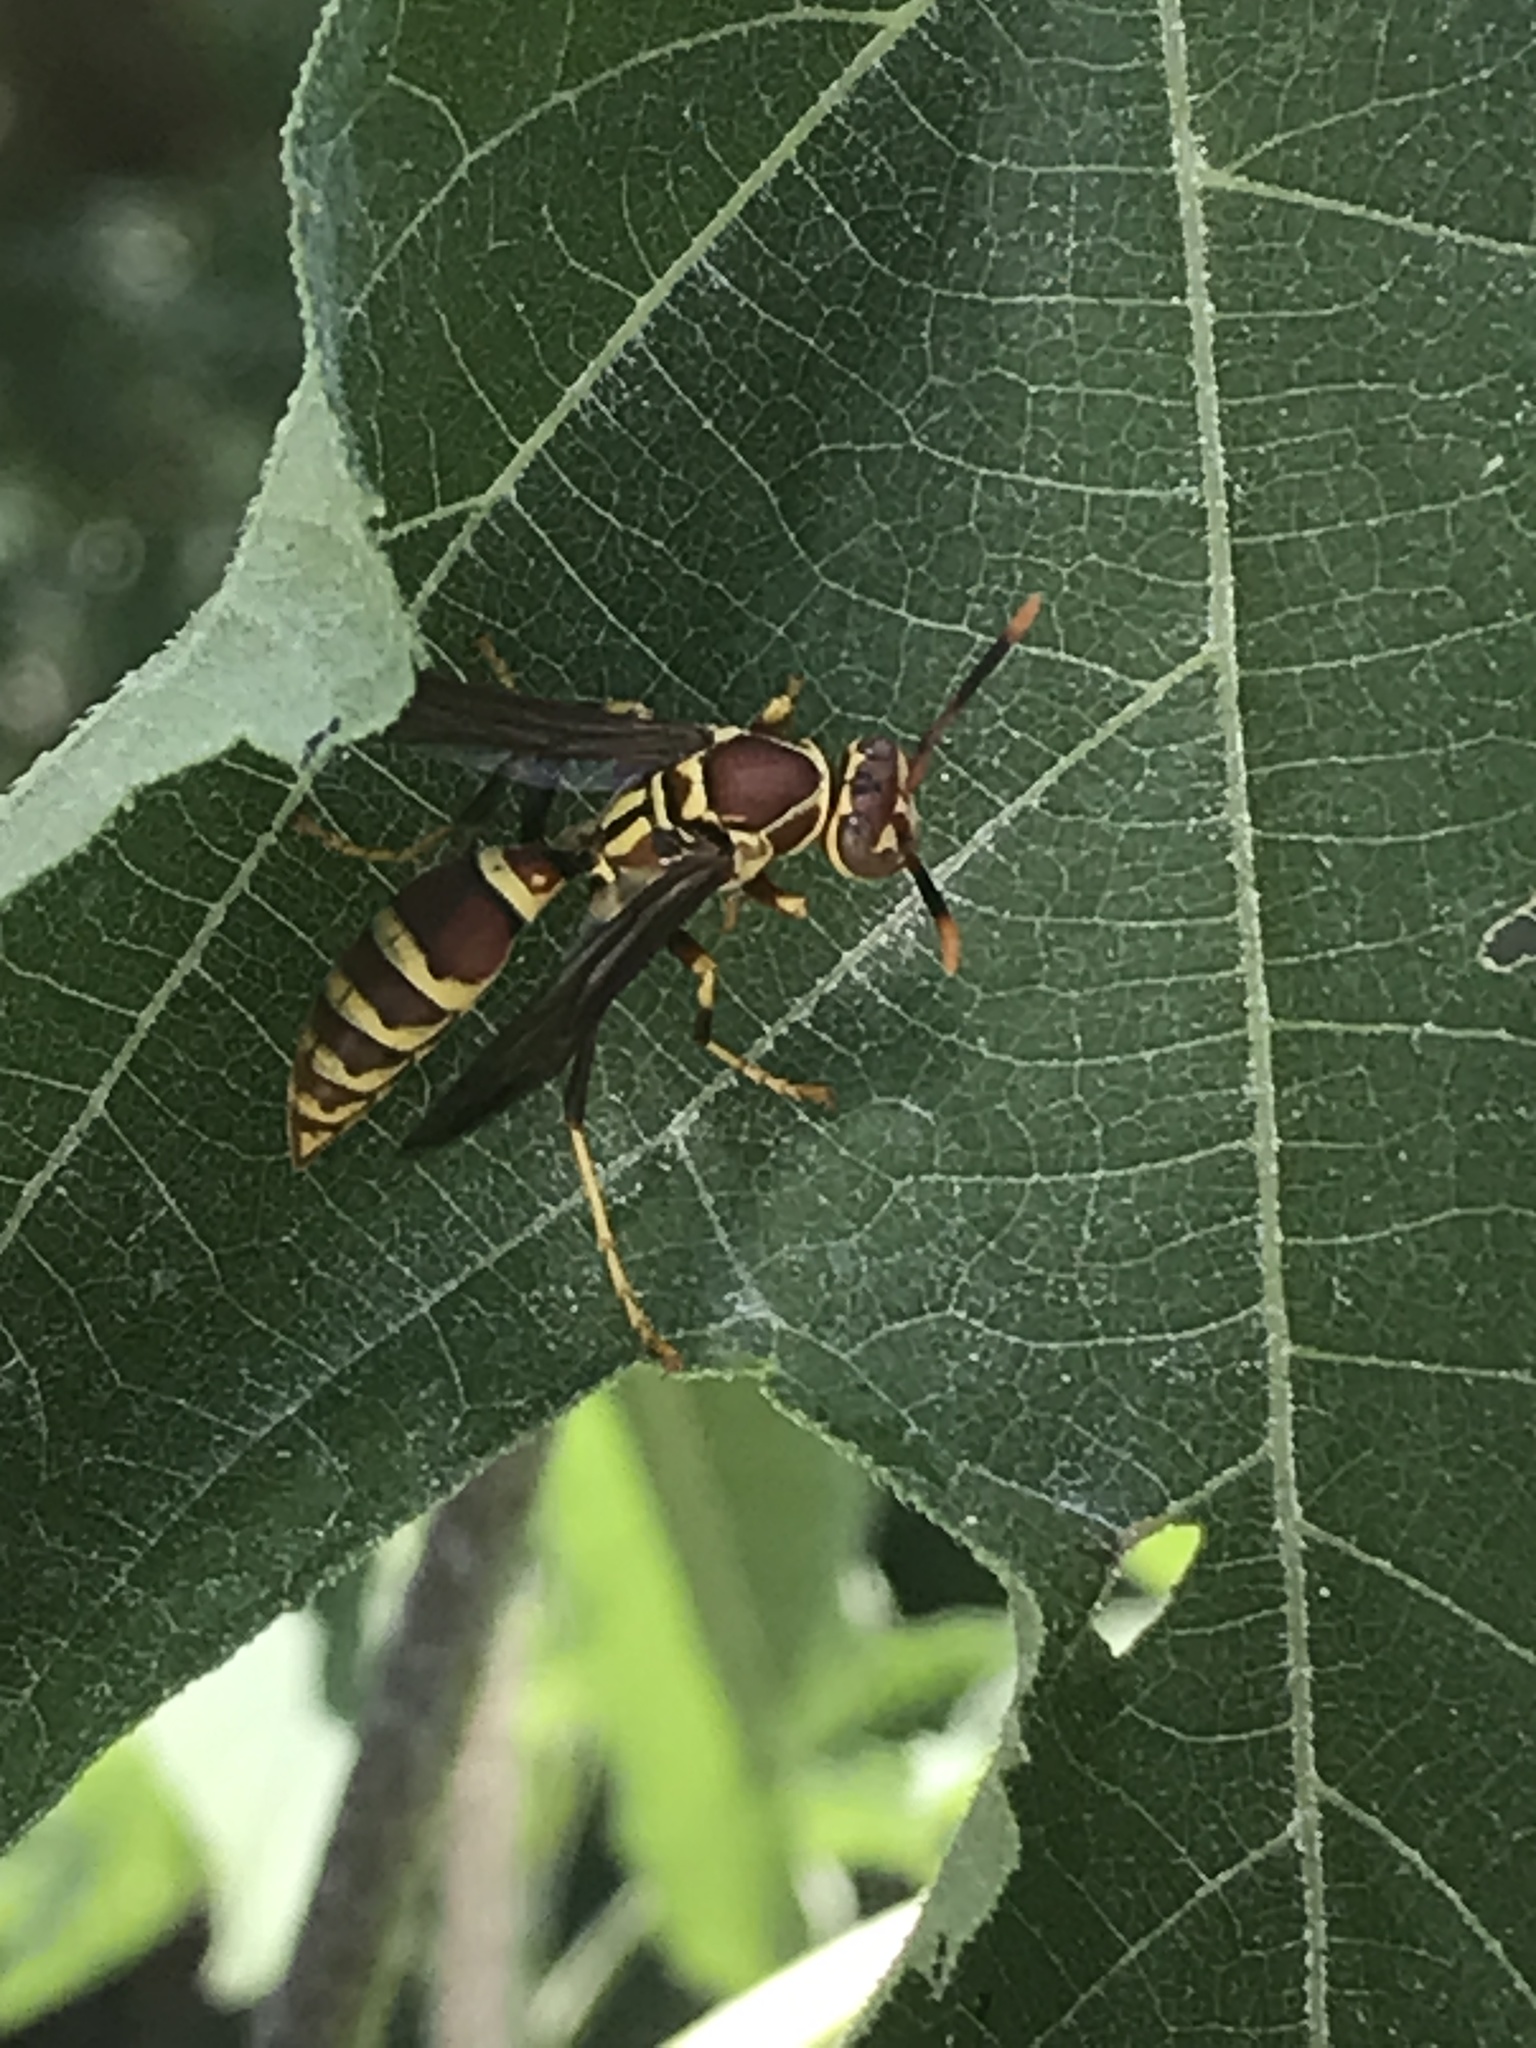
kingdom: Animalia
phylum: Arthropoda
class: Insecta
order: Hymenoptera
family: Eumenidae
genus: Polistes
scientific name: Polistes exclamans
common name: Paper wasp
